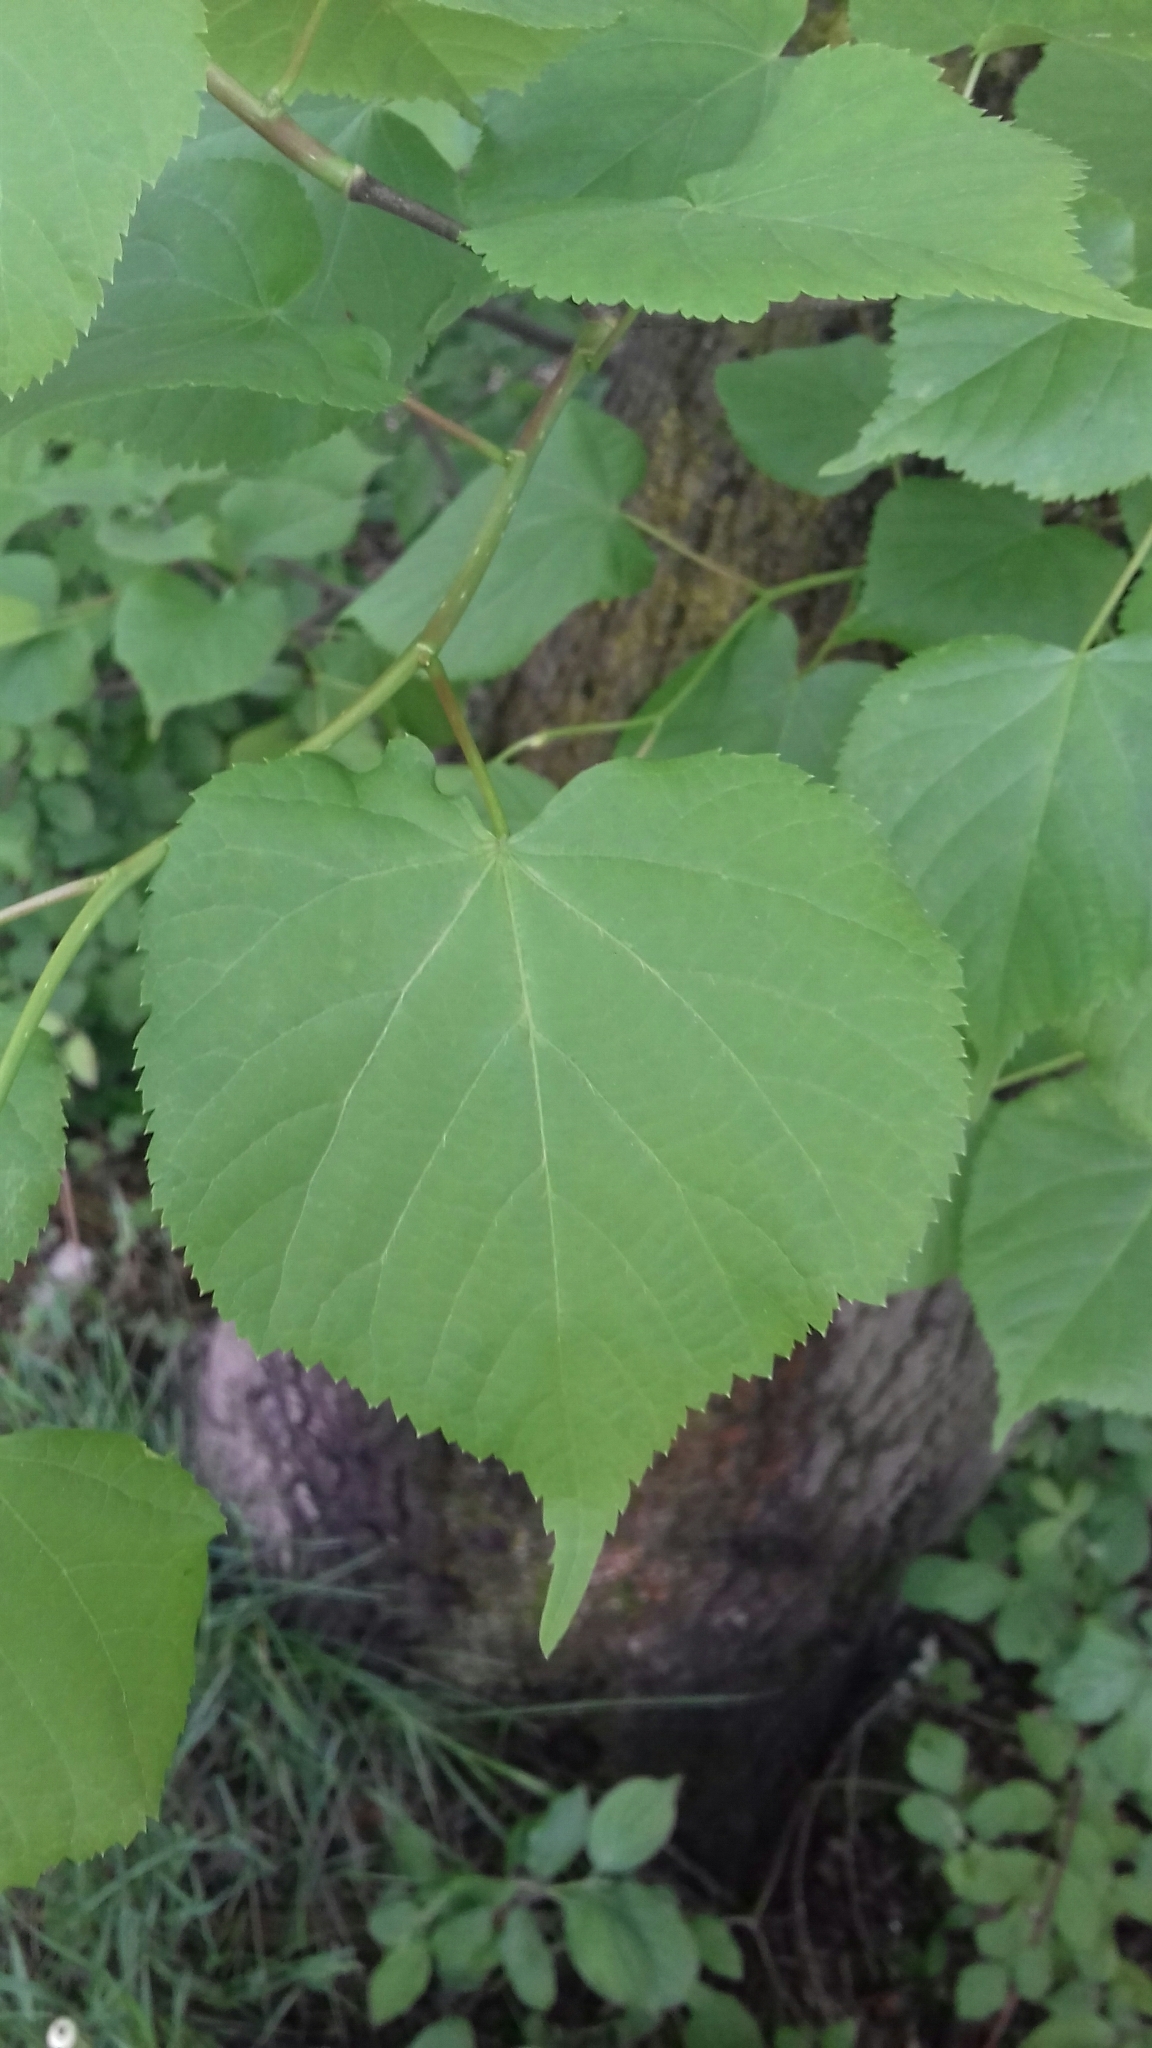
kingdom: Plantae
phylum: Tracheophyta
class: Magnoliopsida
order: Malvales
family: Malvaceae
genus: Tilia
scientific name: Tilia platyphyllos
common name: Large-leaved lime
